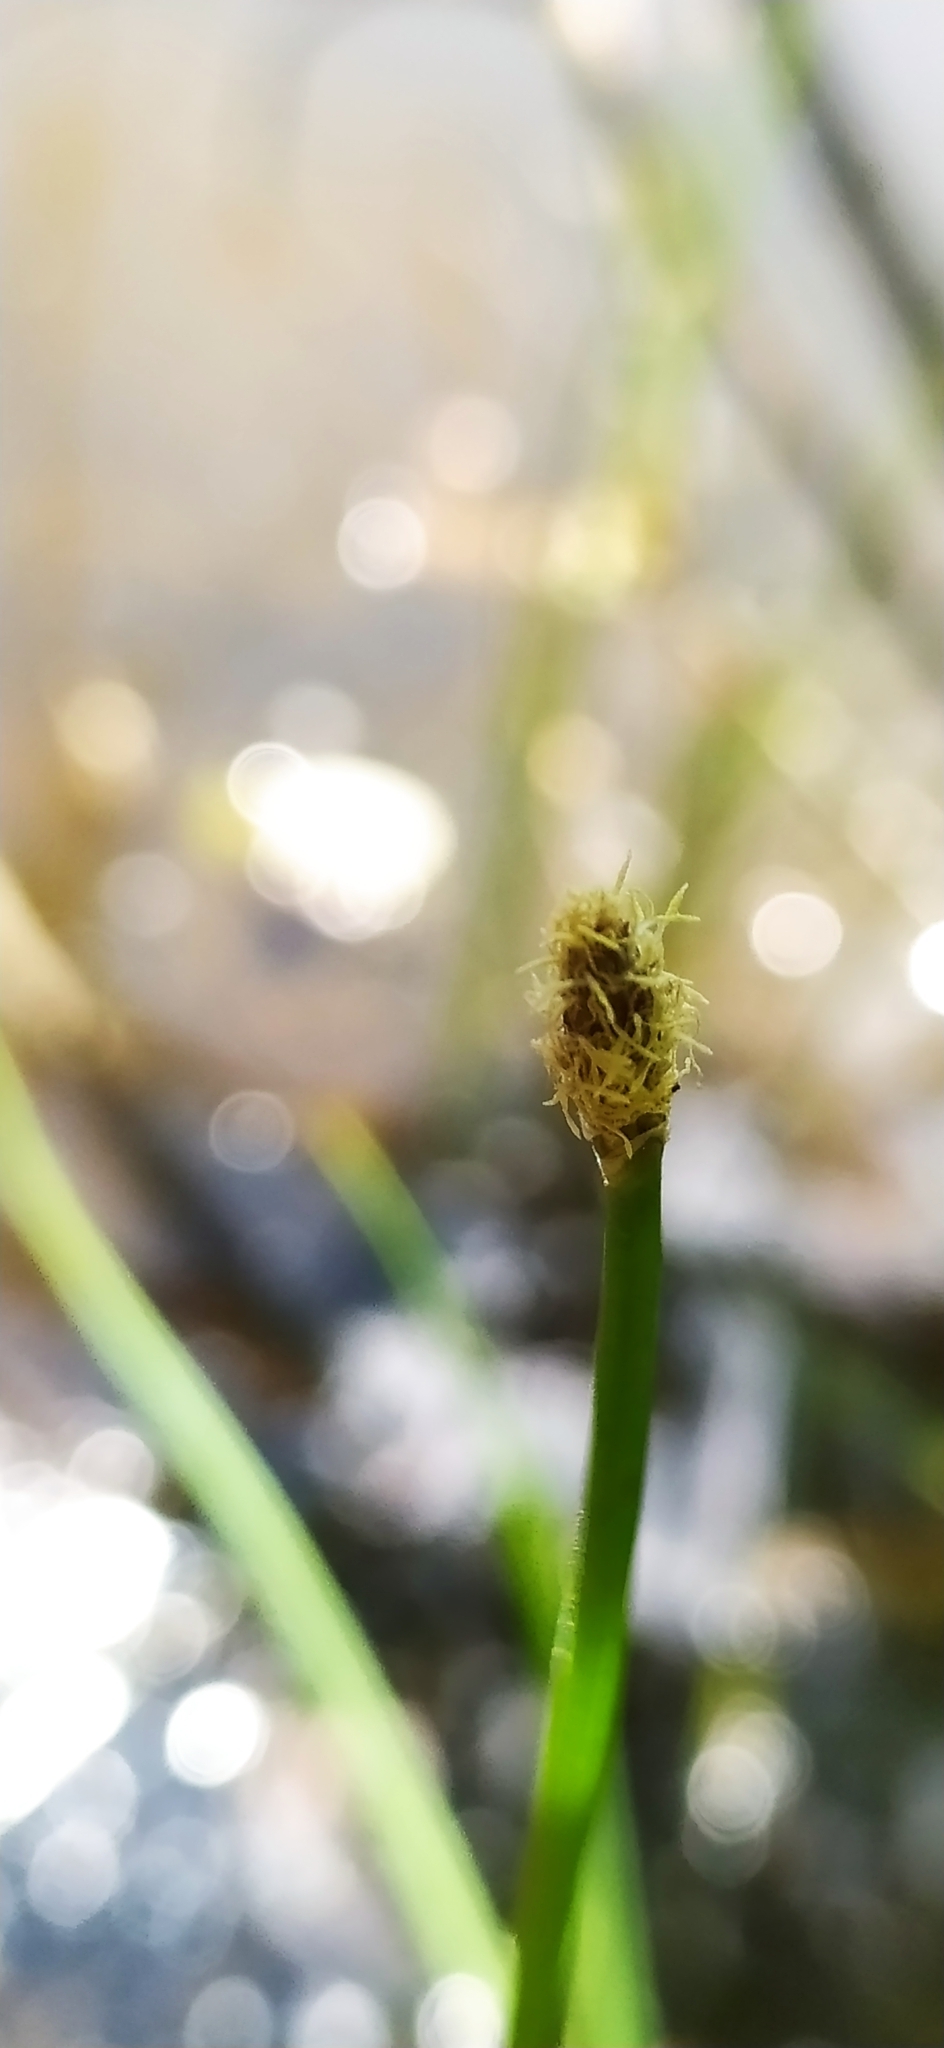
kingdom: Plantae
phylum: Tracheophyta
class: Liliopsida
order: Poales
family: Cyperaceae
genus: Eleocharis
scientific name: Eleocharis palustris
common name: Common spike-rush
